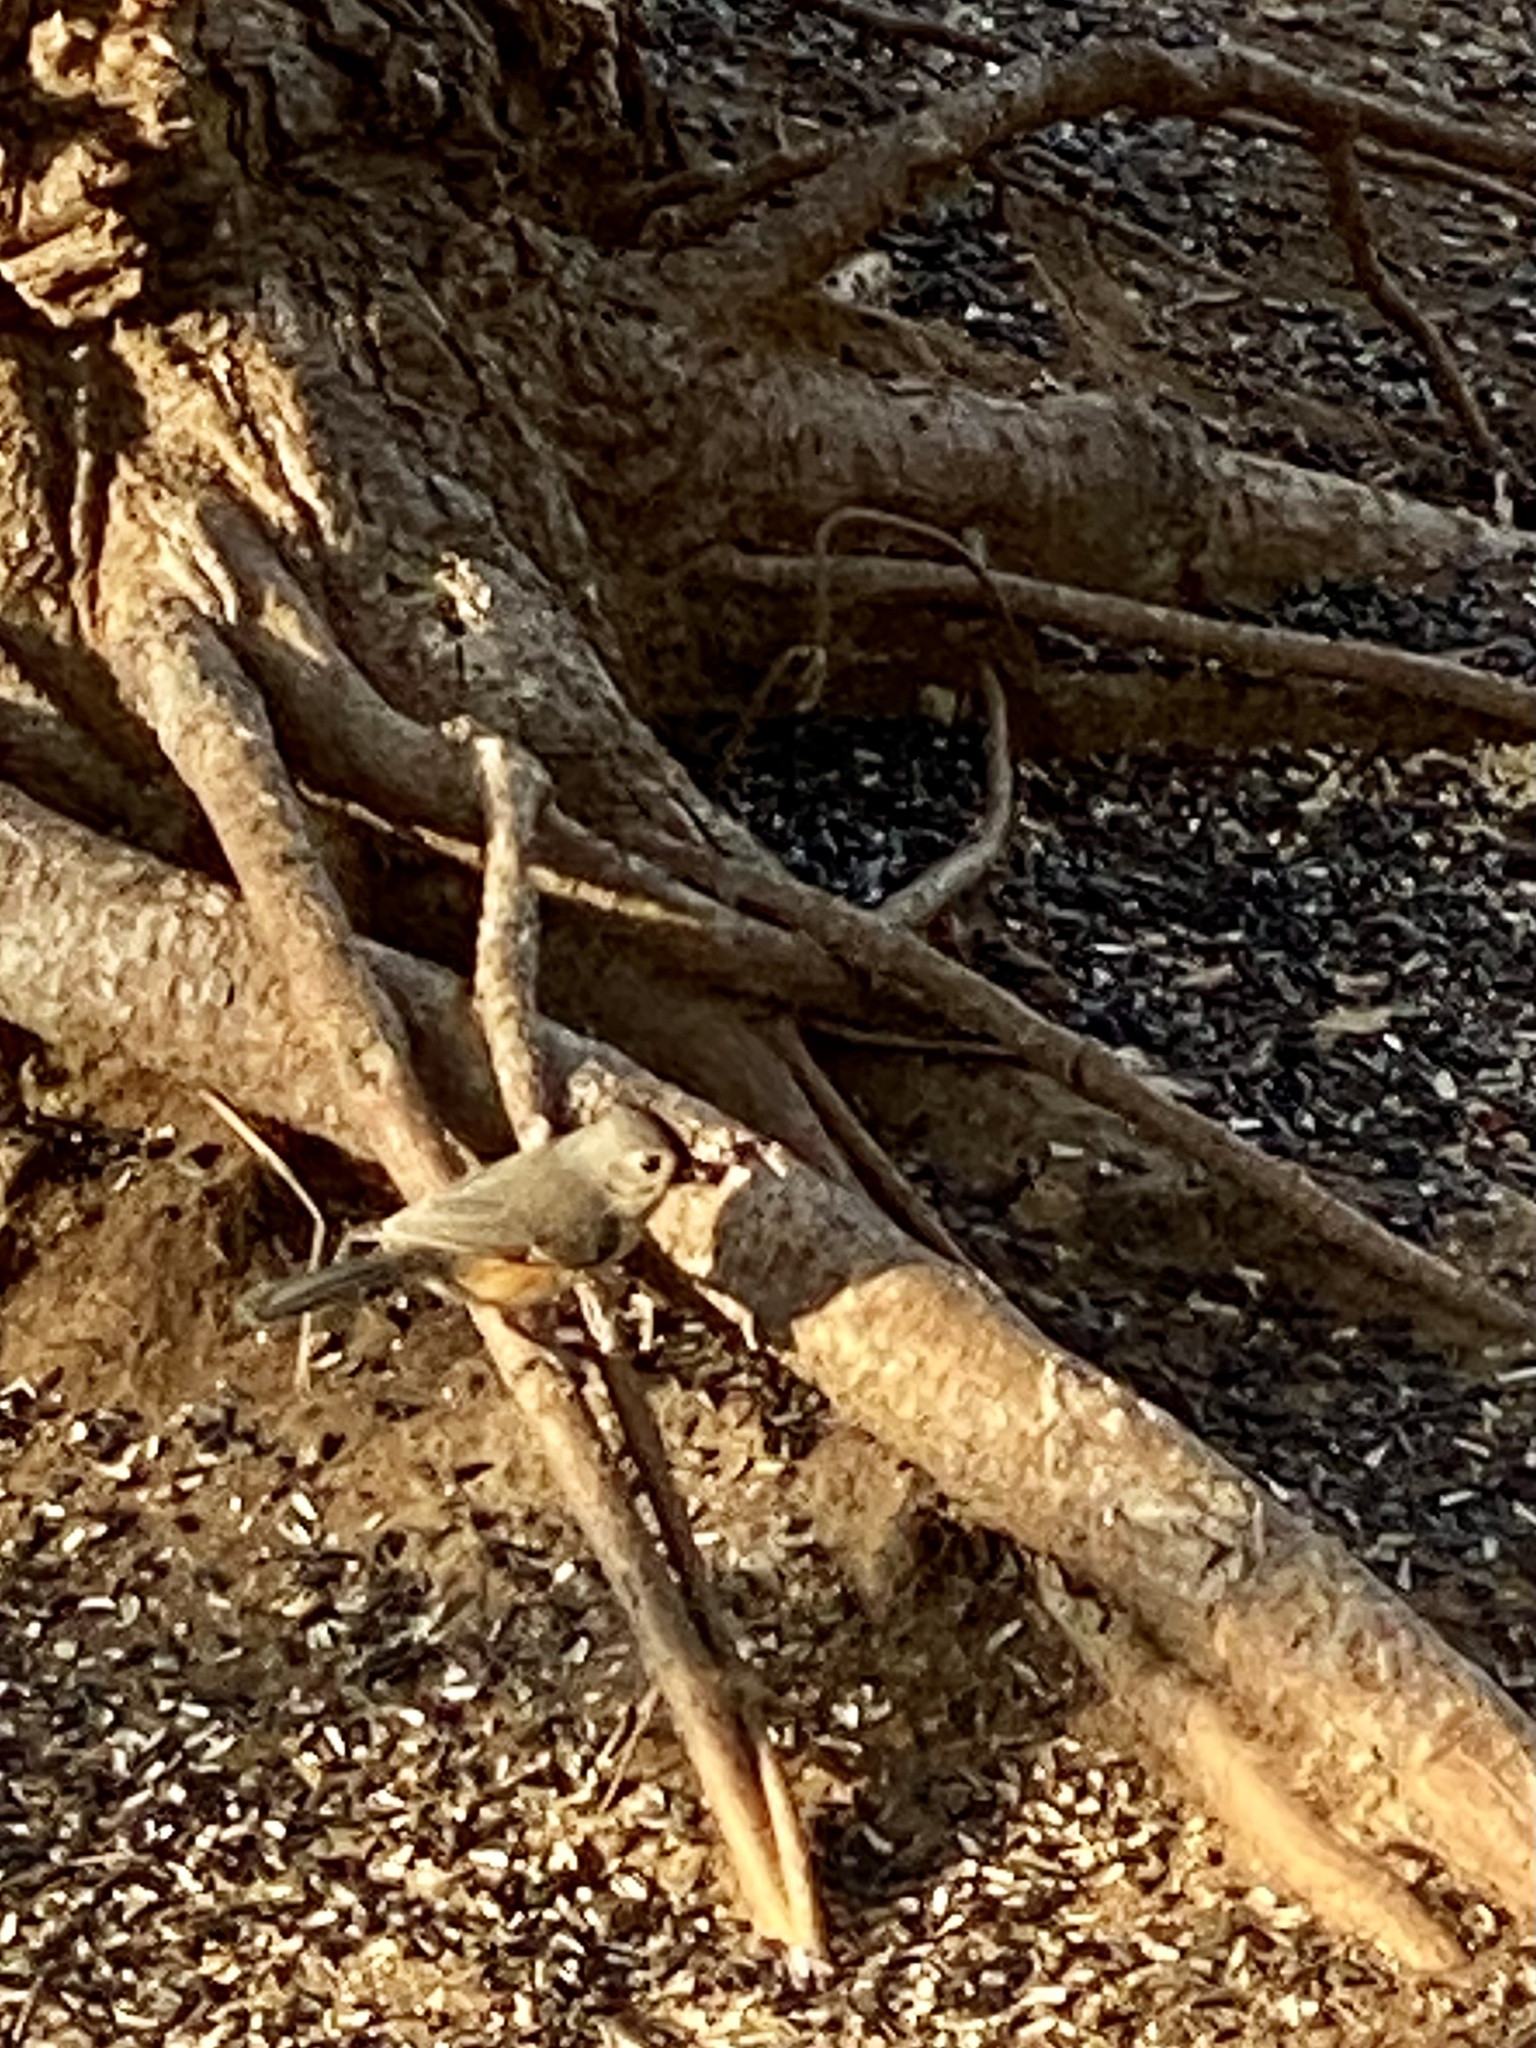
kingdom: Animalia
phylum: Chordata
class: Aves
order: Passeriformes
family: Paridae
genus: Baeolophus
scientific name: Baeolophus bicolor
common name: Tufted titmouse
